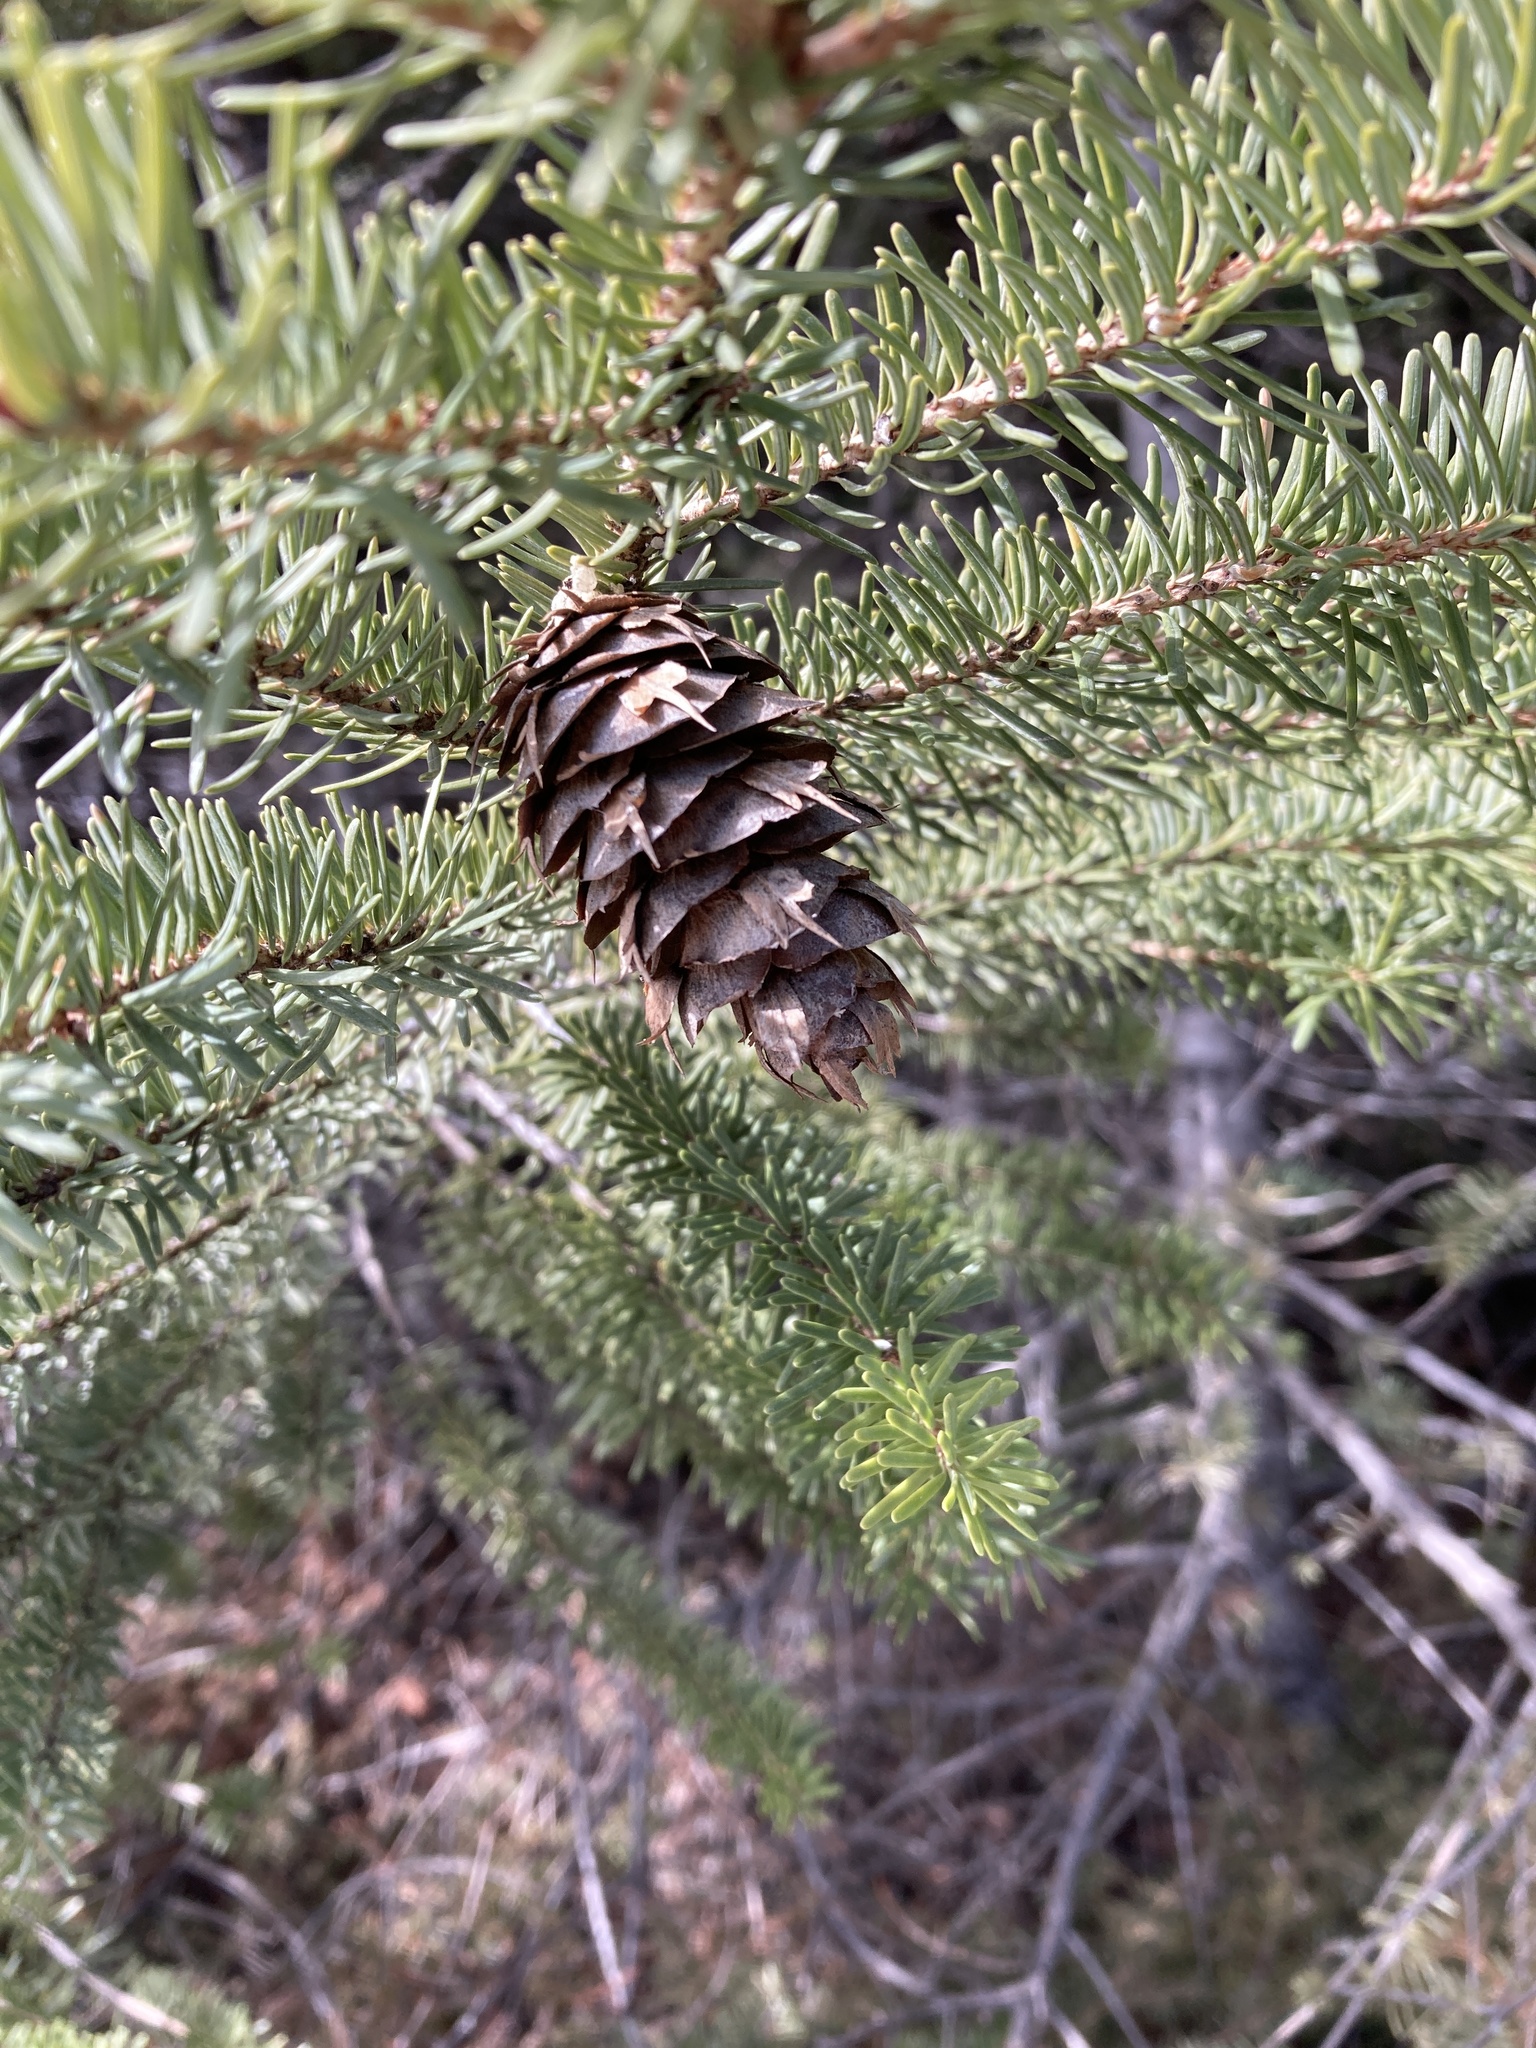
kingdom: Plantae
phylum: Tracheophyta
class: Pinopsida
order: Pinales
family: Pinaceae
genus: Pseudotsuga
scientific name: Pseudotsuga menziesii
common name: Douglas fir
